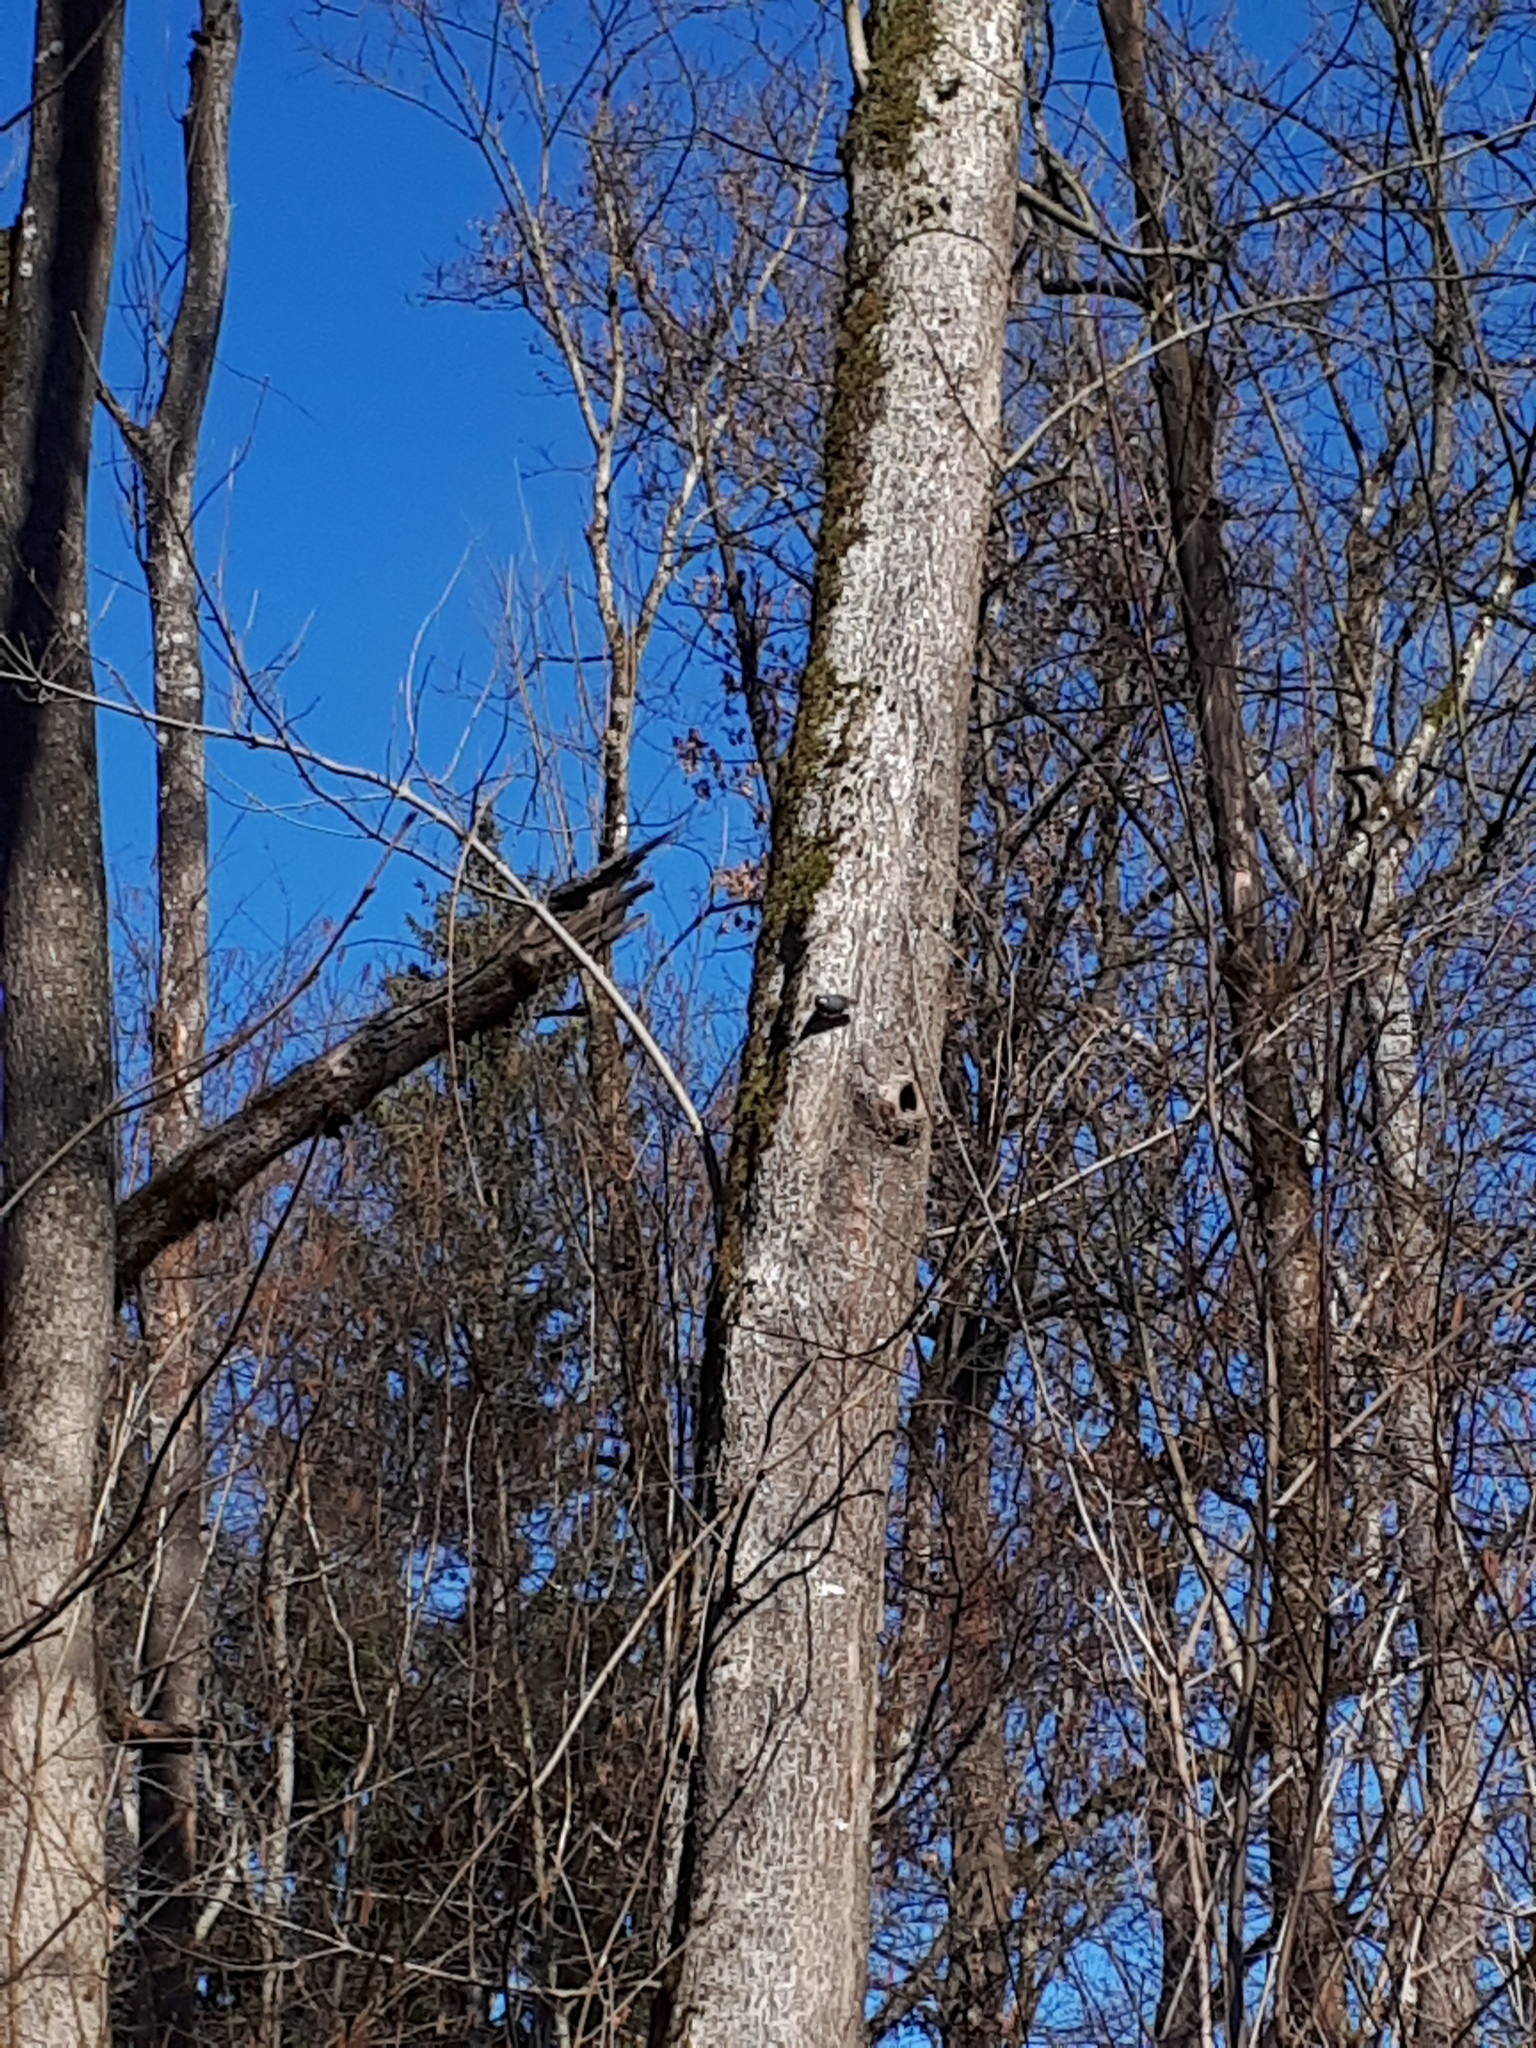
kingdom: Animalia
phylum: Chordata
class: Aves
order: Passeriformes
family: Sittidae
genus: Sitta
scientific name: Sitta europaea
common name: Eurasian nuthatch
